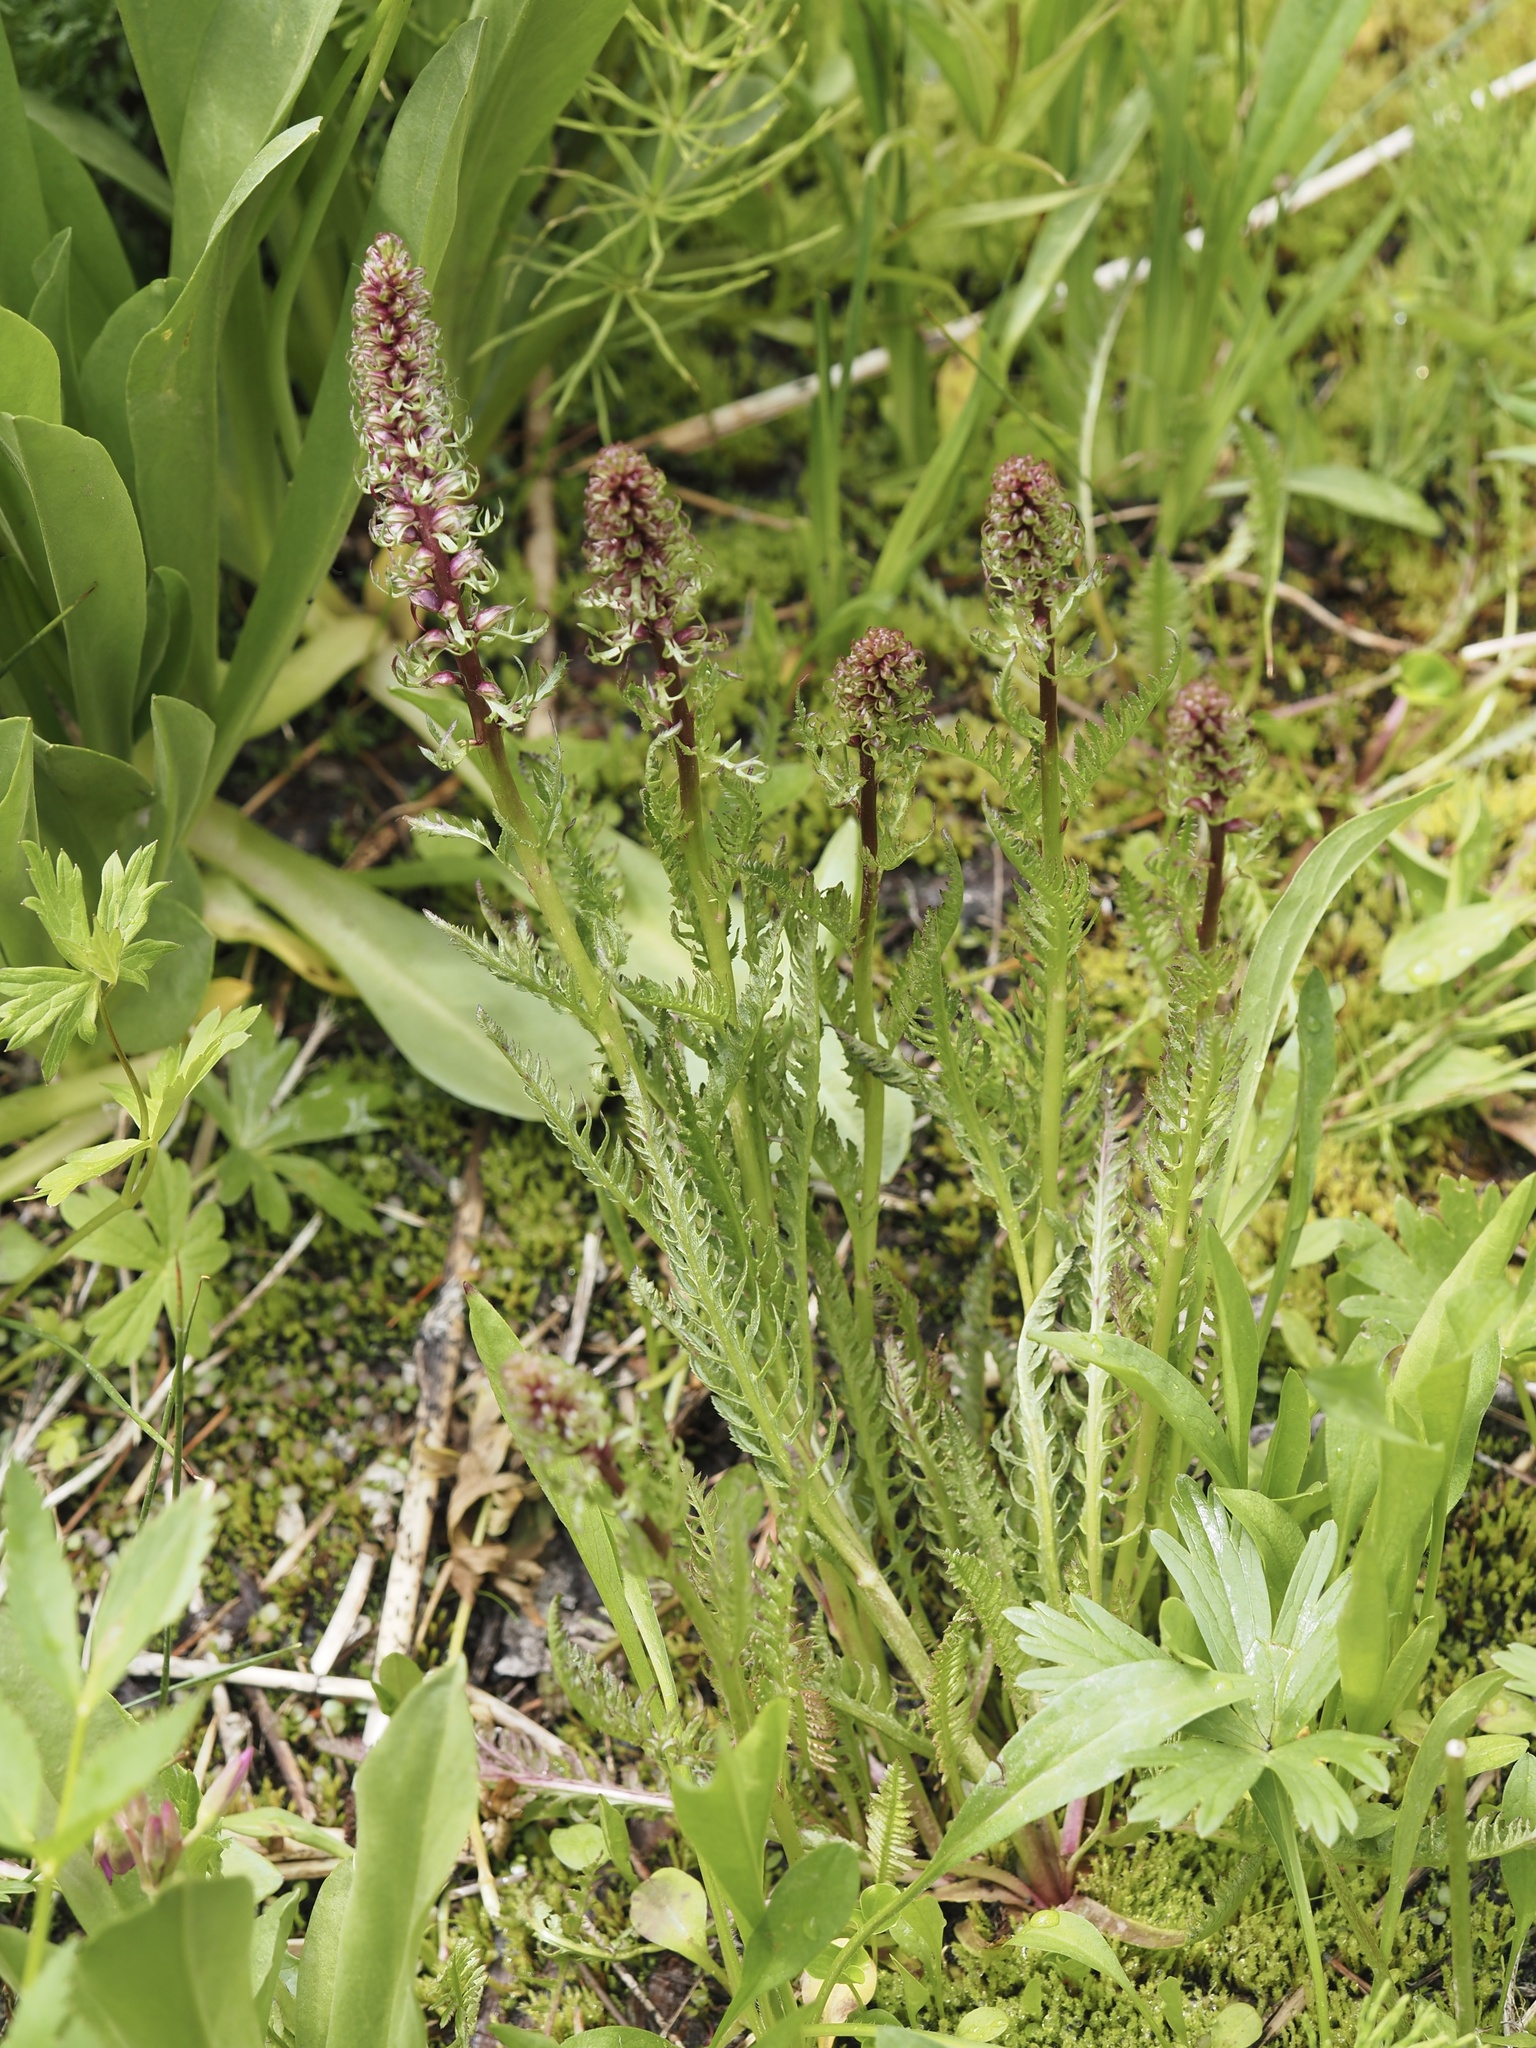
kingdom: Plantae
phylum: Tracheophyta
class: Magnoliopsida
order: Lamiales
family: Orobanchaceae
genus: Pedicularis
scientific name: Pedicularis groenlandica
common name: Elephant's-head
